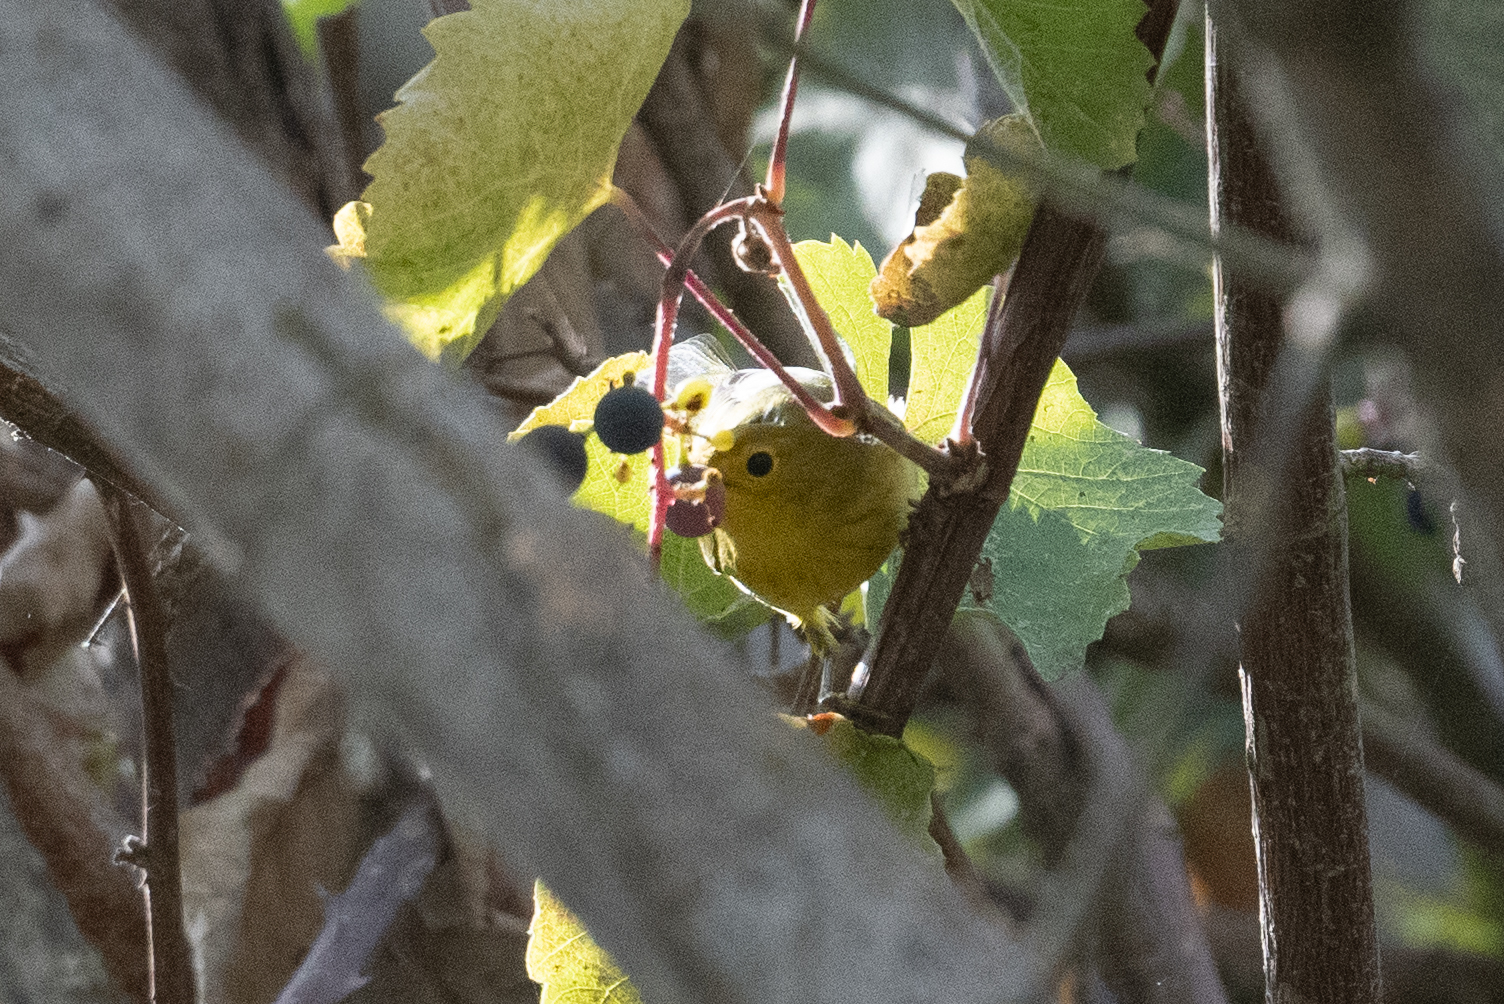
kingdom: Animalia
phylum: Chordata
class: Aves
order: Passeriformes
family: Parulidae
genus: Setophaga
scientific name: Setophaga petechia
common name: Yellow warbler
